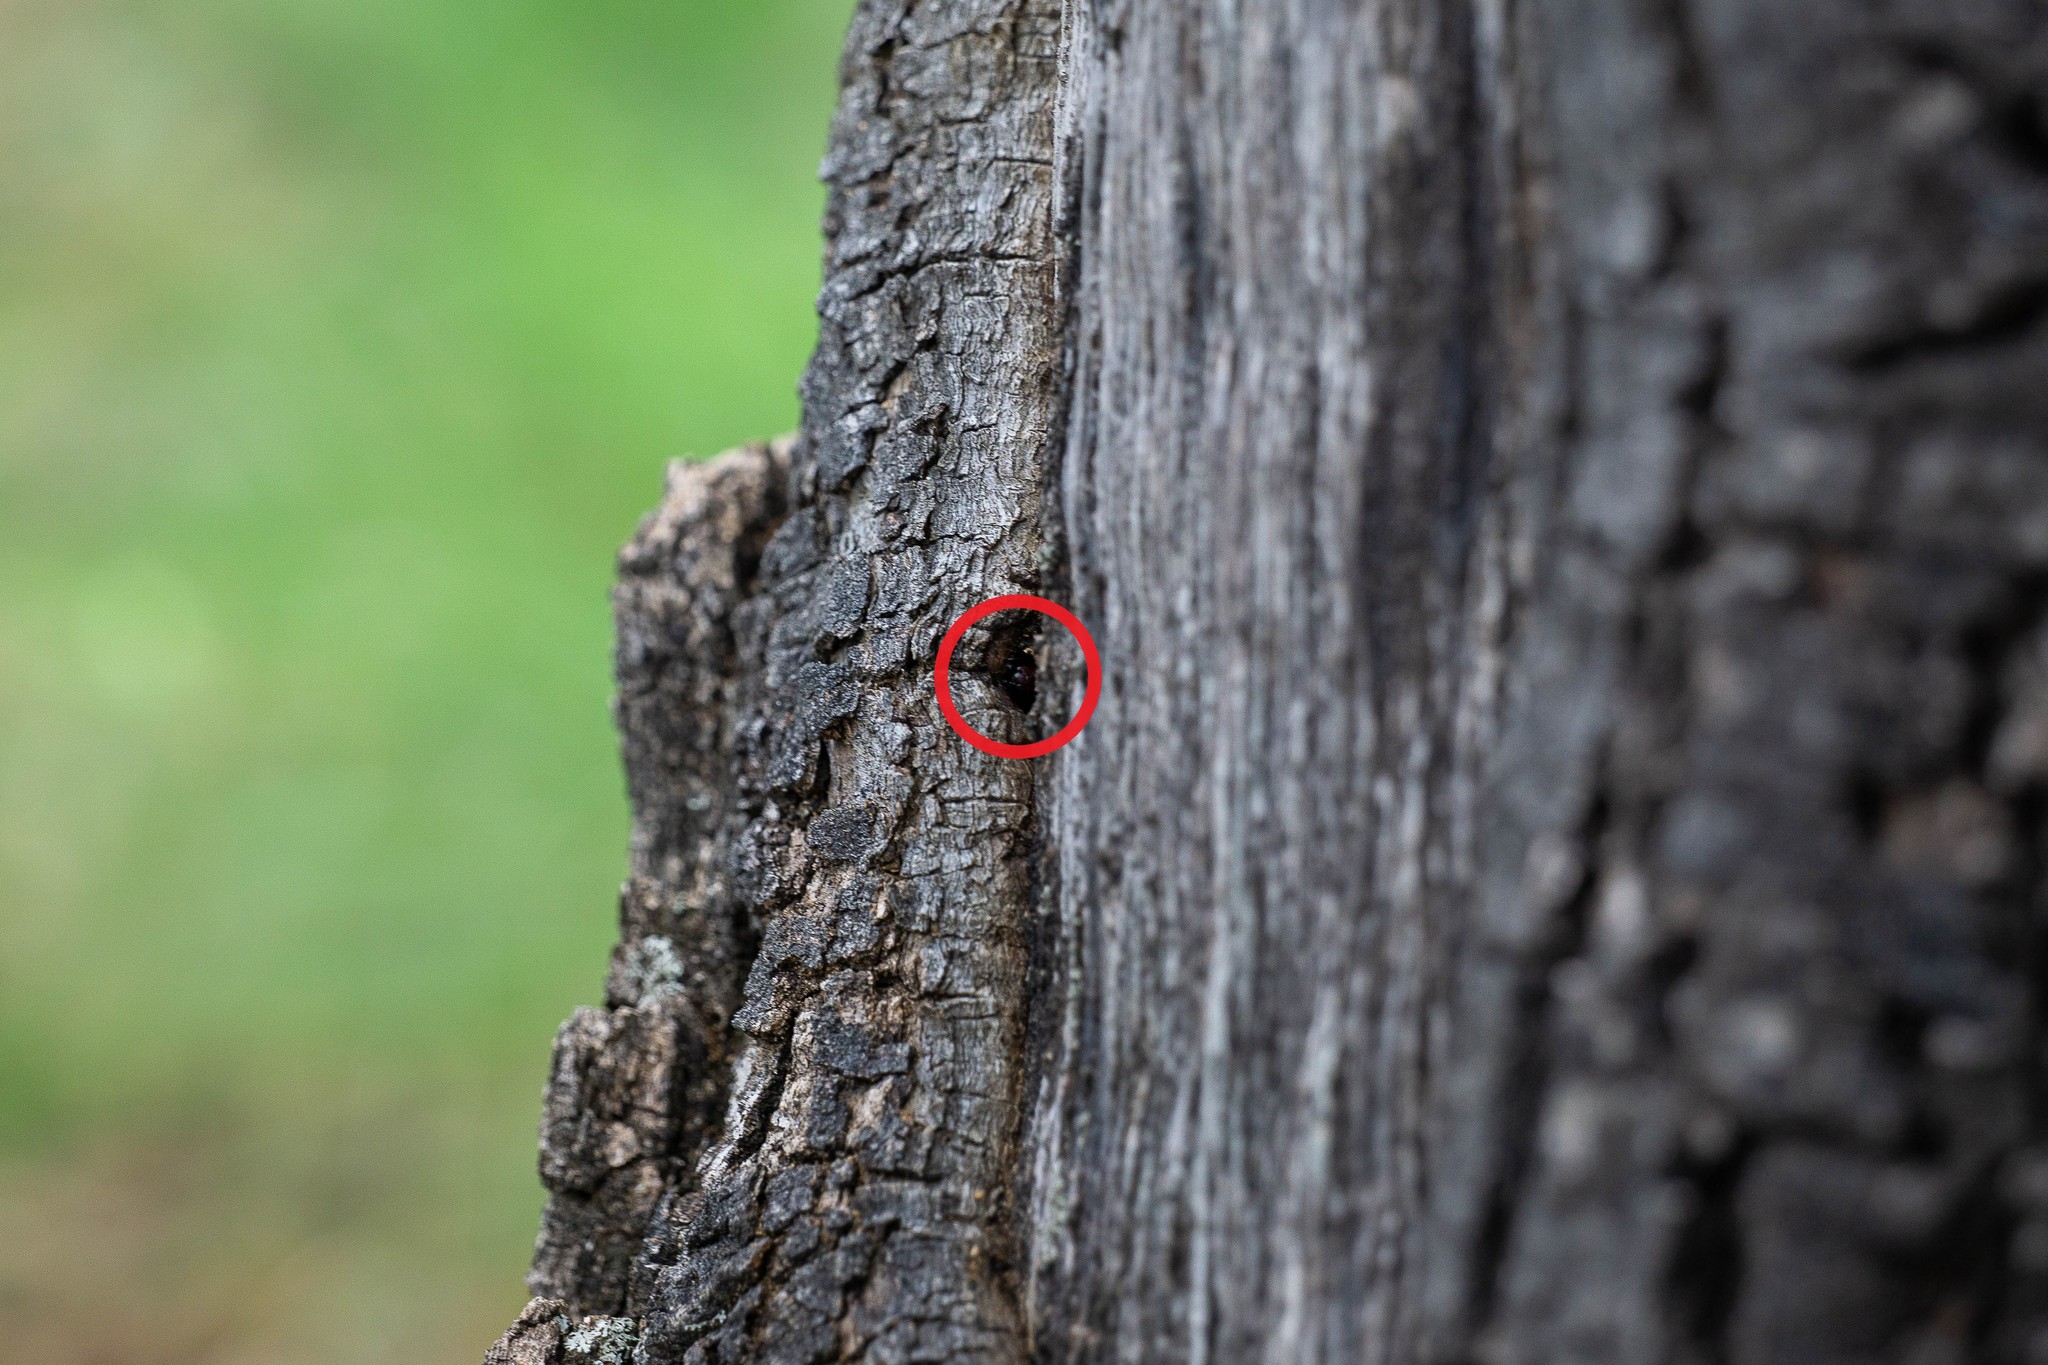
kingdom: Animalia
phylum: Arthropoda
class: Insecta
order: Hymenoptera
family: Formicidae
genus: Camponotus
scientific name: Camponotus schaefferi
